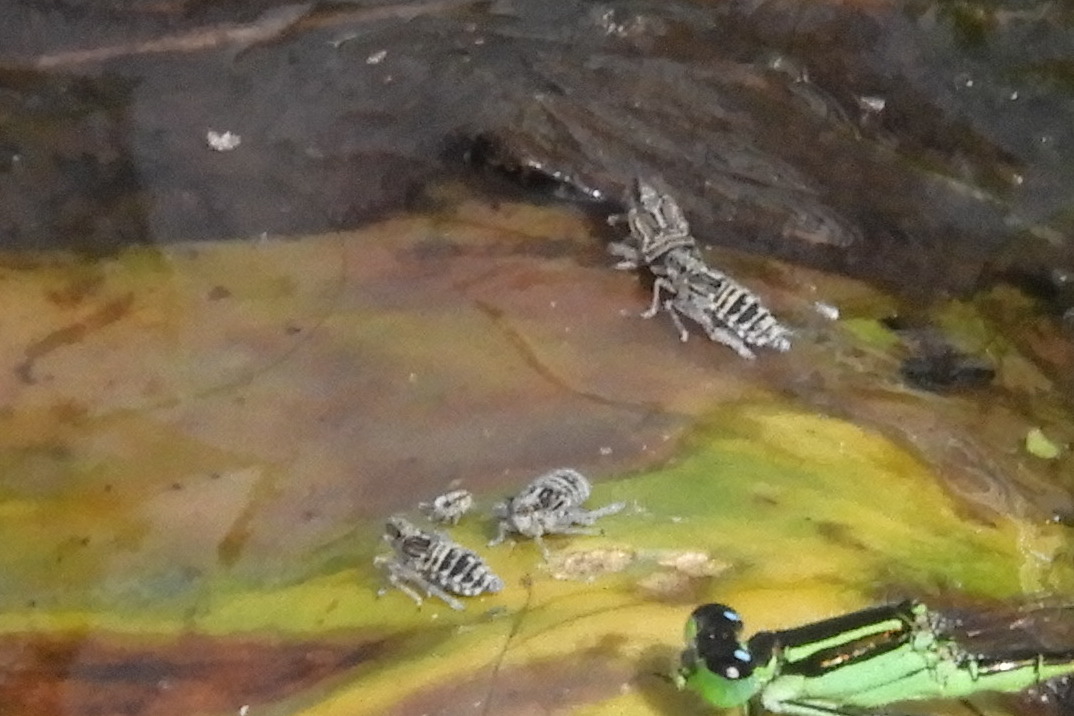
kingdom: Animalia
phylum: Arthropoda
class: Insecta
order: Hemiptera
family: Delphacidae
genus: Megamelus
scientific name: Megamelus davisi
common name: Planthopper
